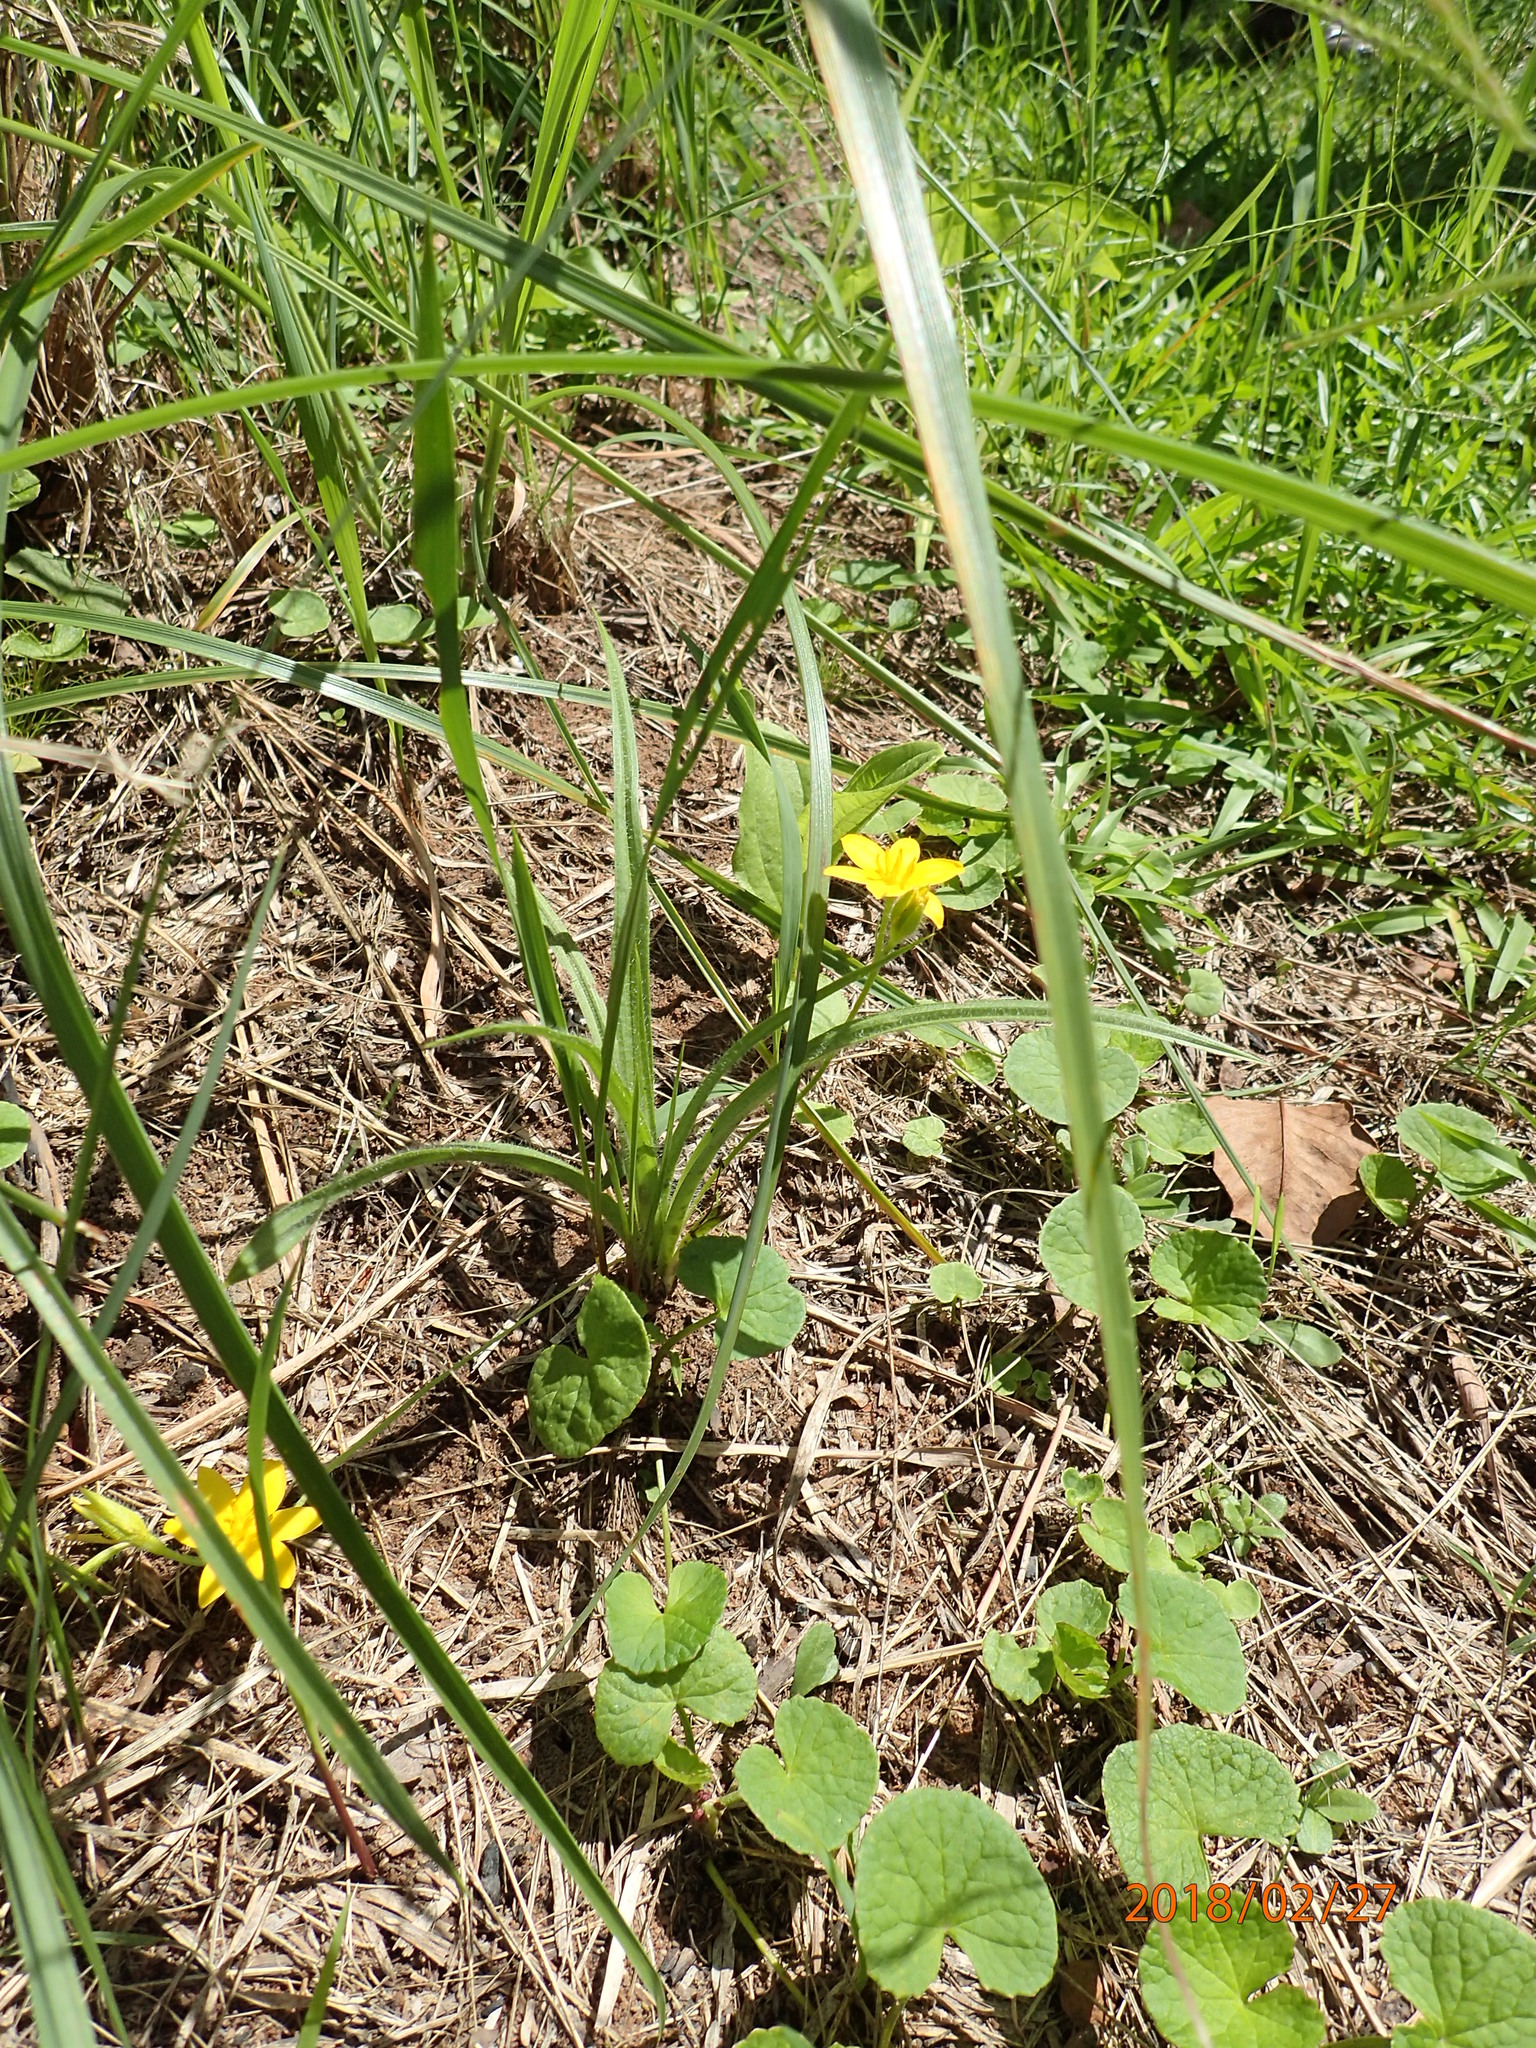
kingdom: Plantae
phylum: Tracheophyta
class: Liliopsida
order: Asparagales
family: Hypoxidaceae
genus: Hypoxis
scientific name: Hypoxis angustifolia
